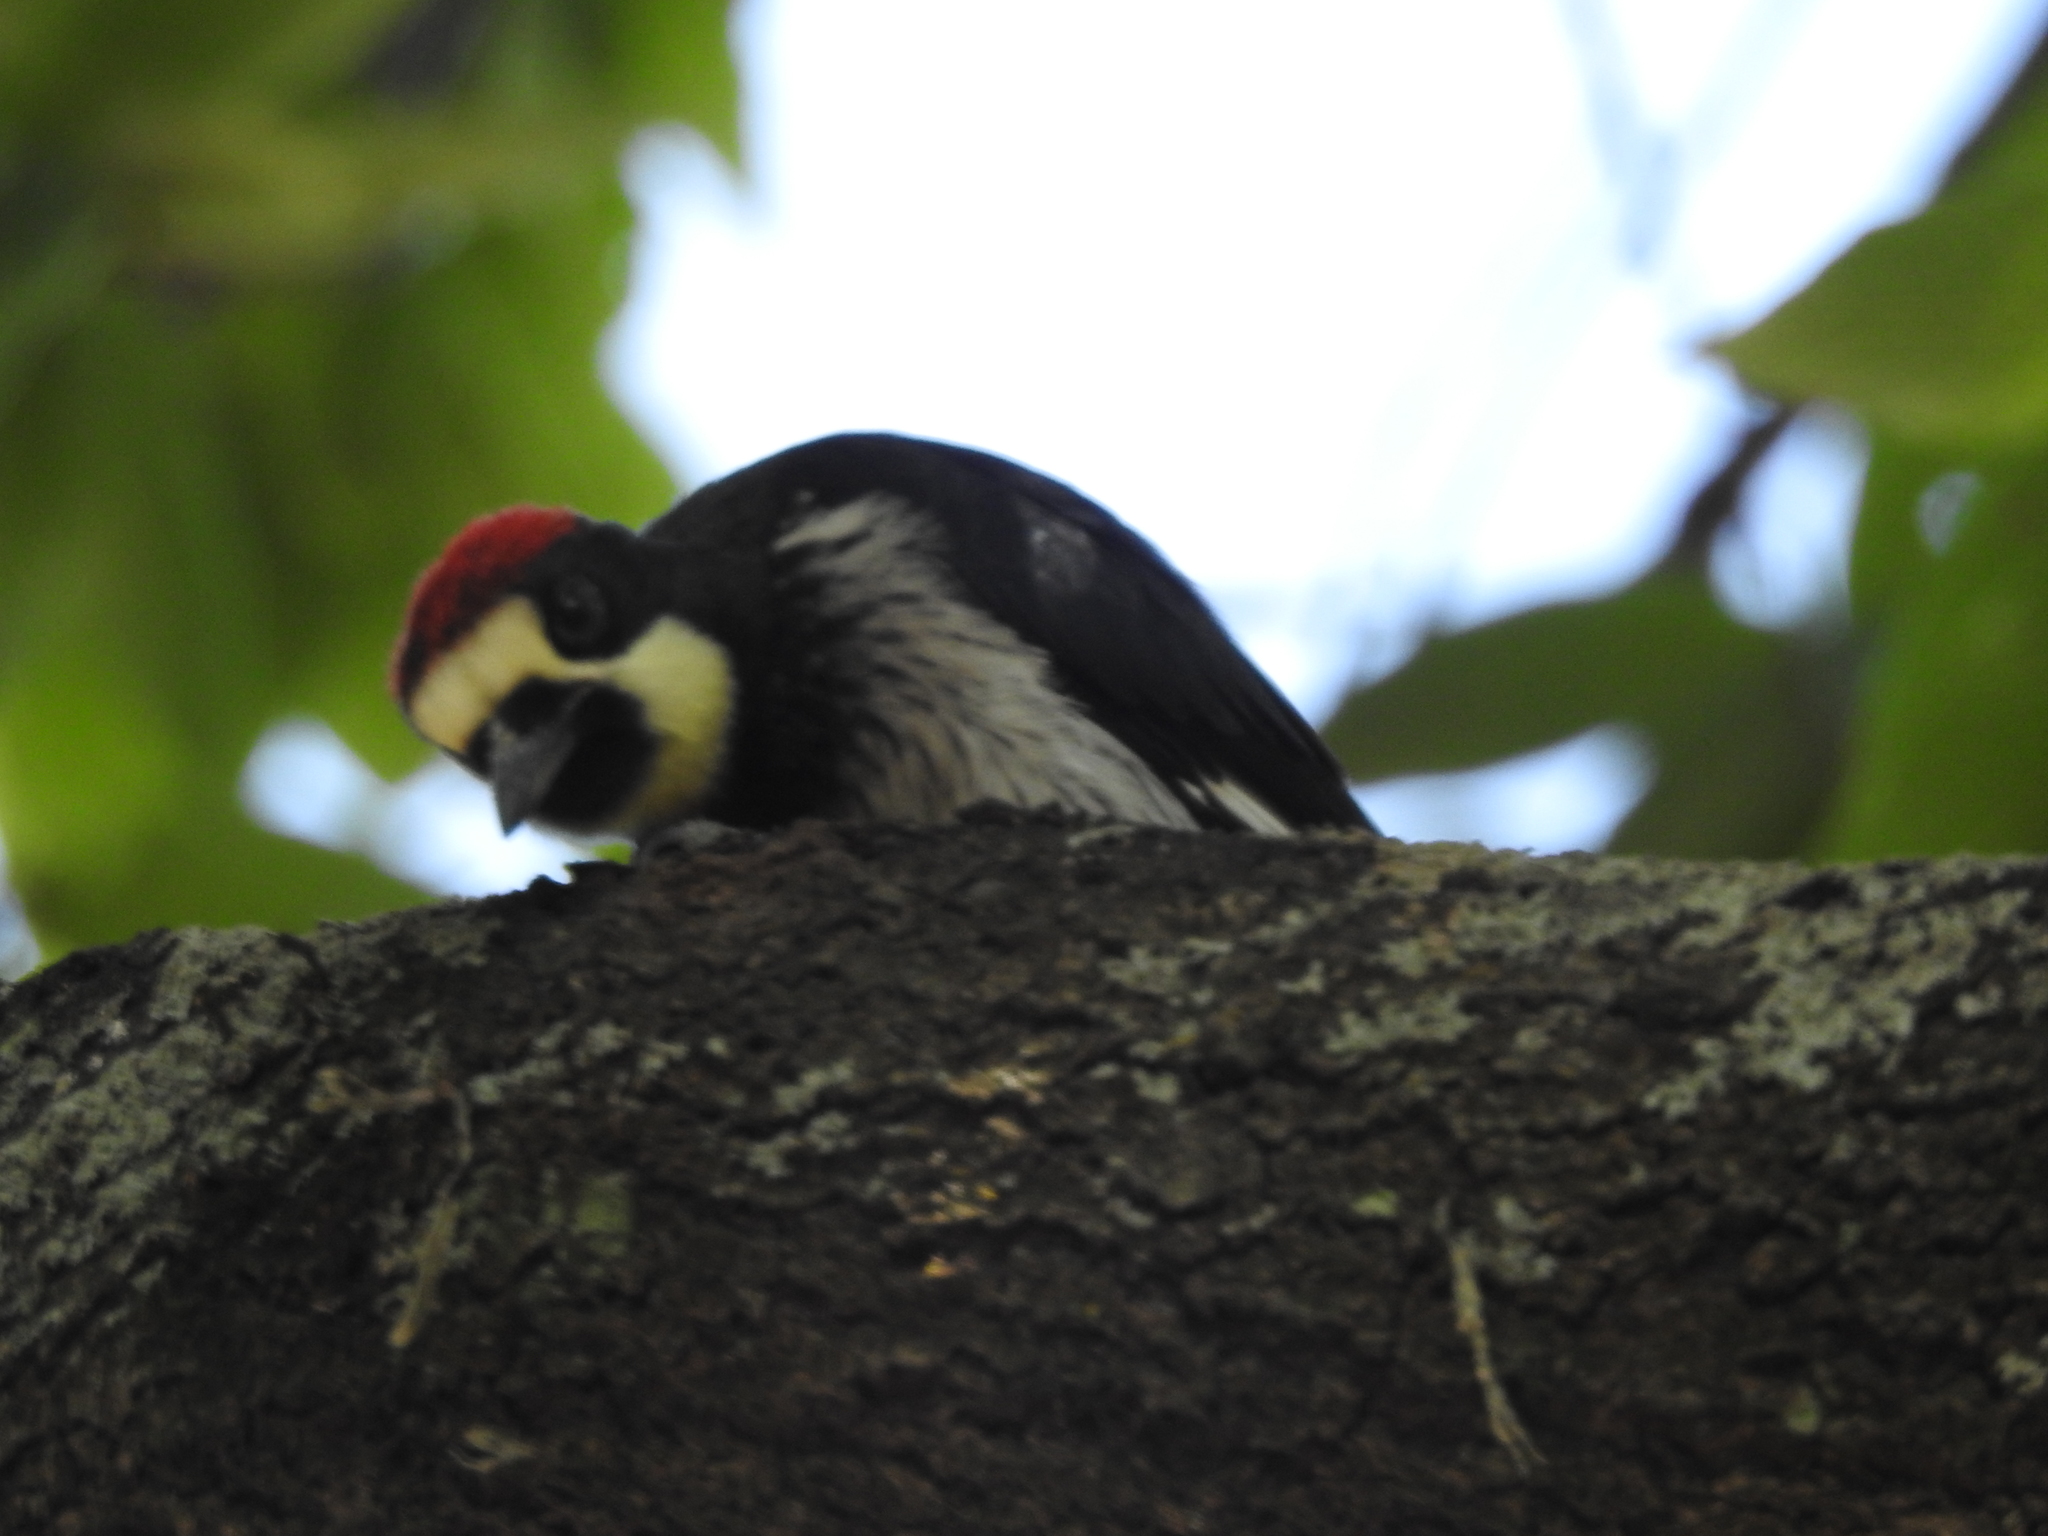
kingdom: Animalia
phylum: Chordata
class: Aves
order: Piciformes
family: Picidae
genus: Melanerpes
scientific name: Melanerpes formicivorus
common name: Acorn woodpecker
